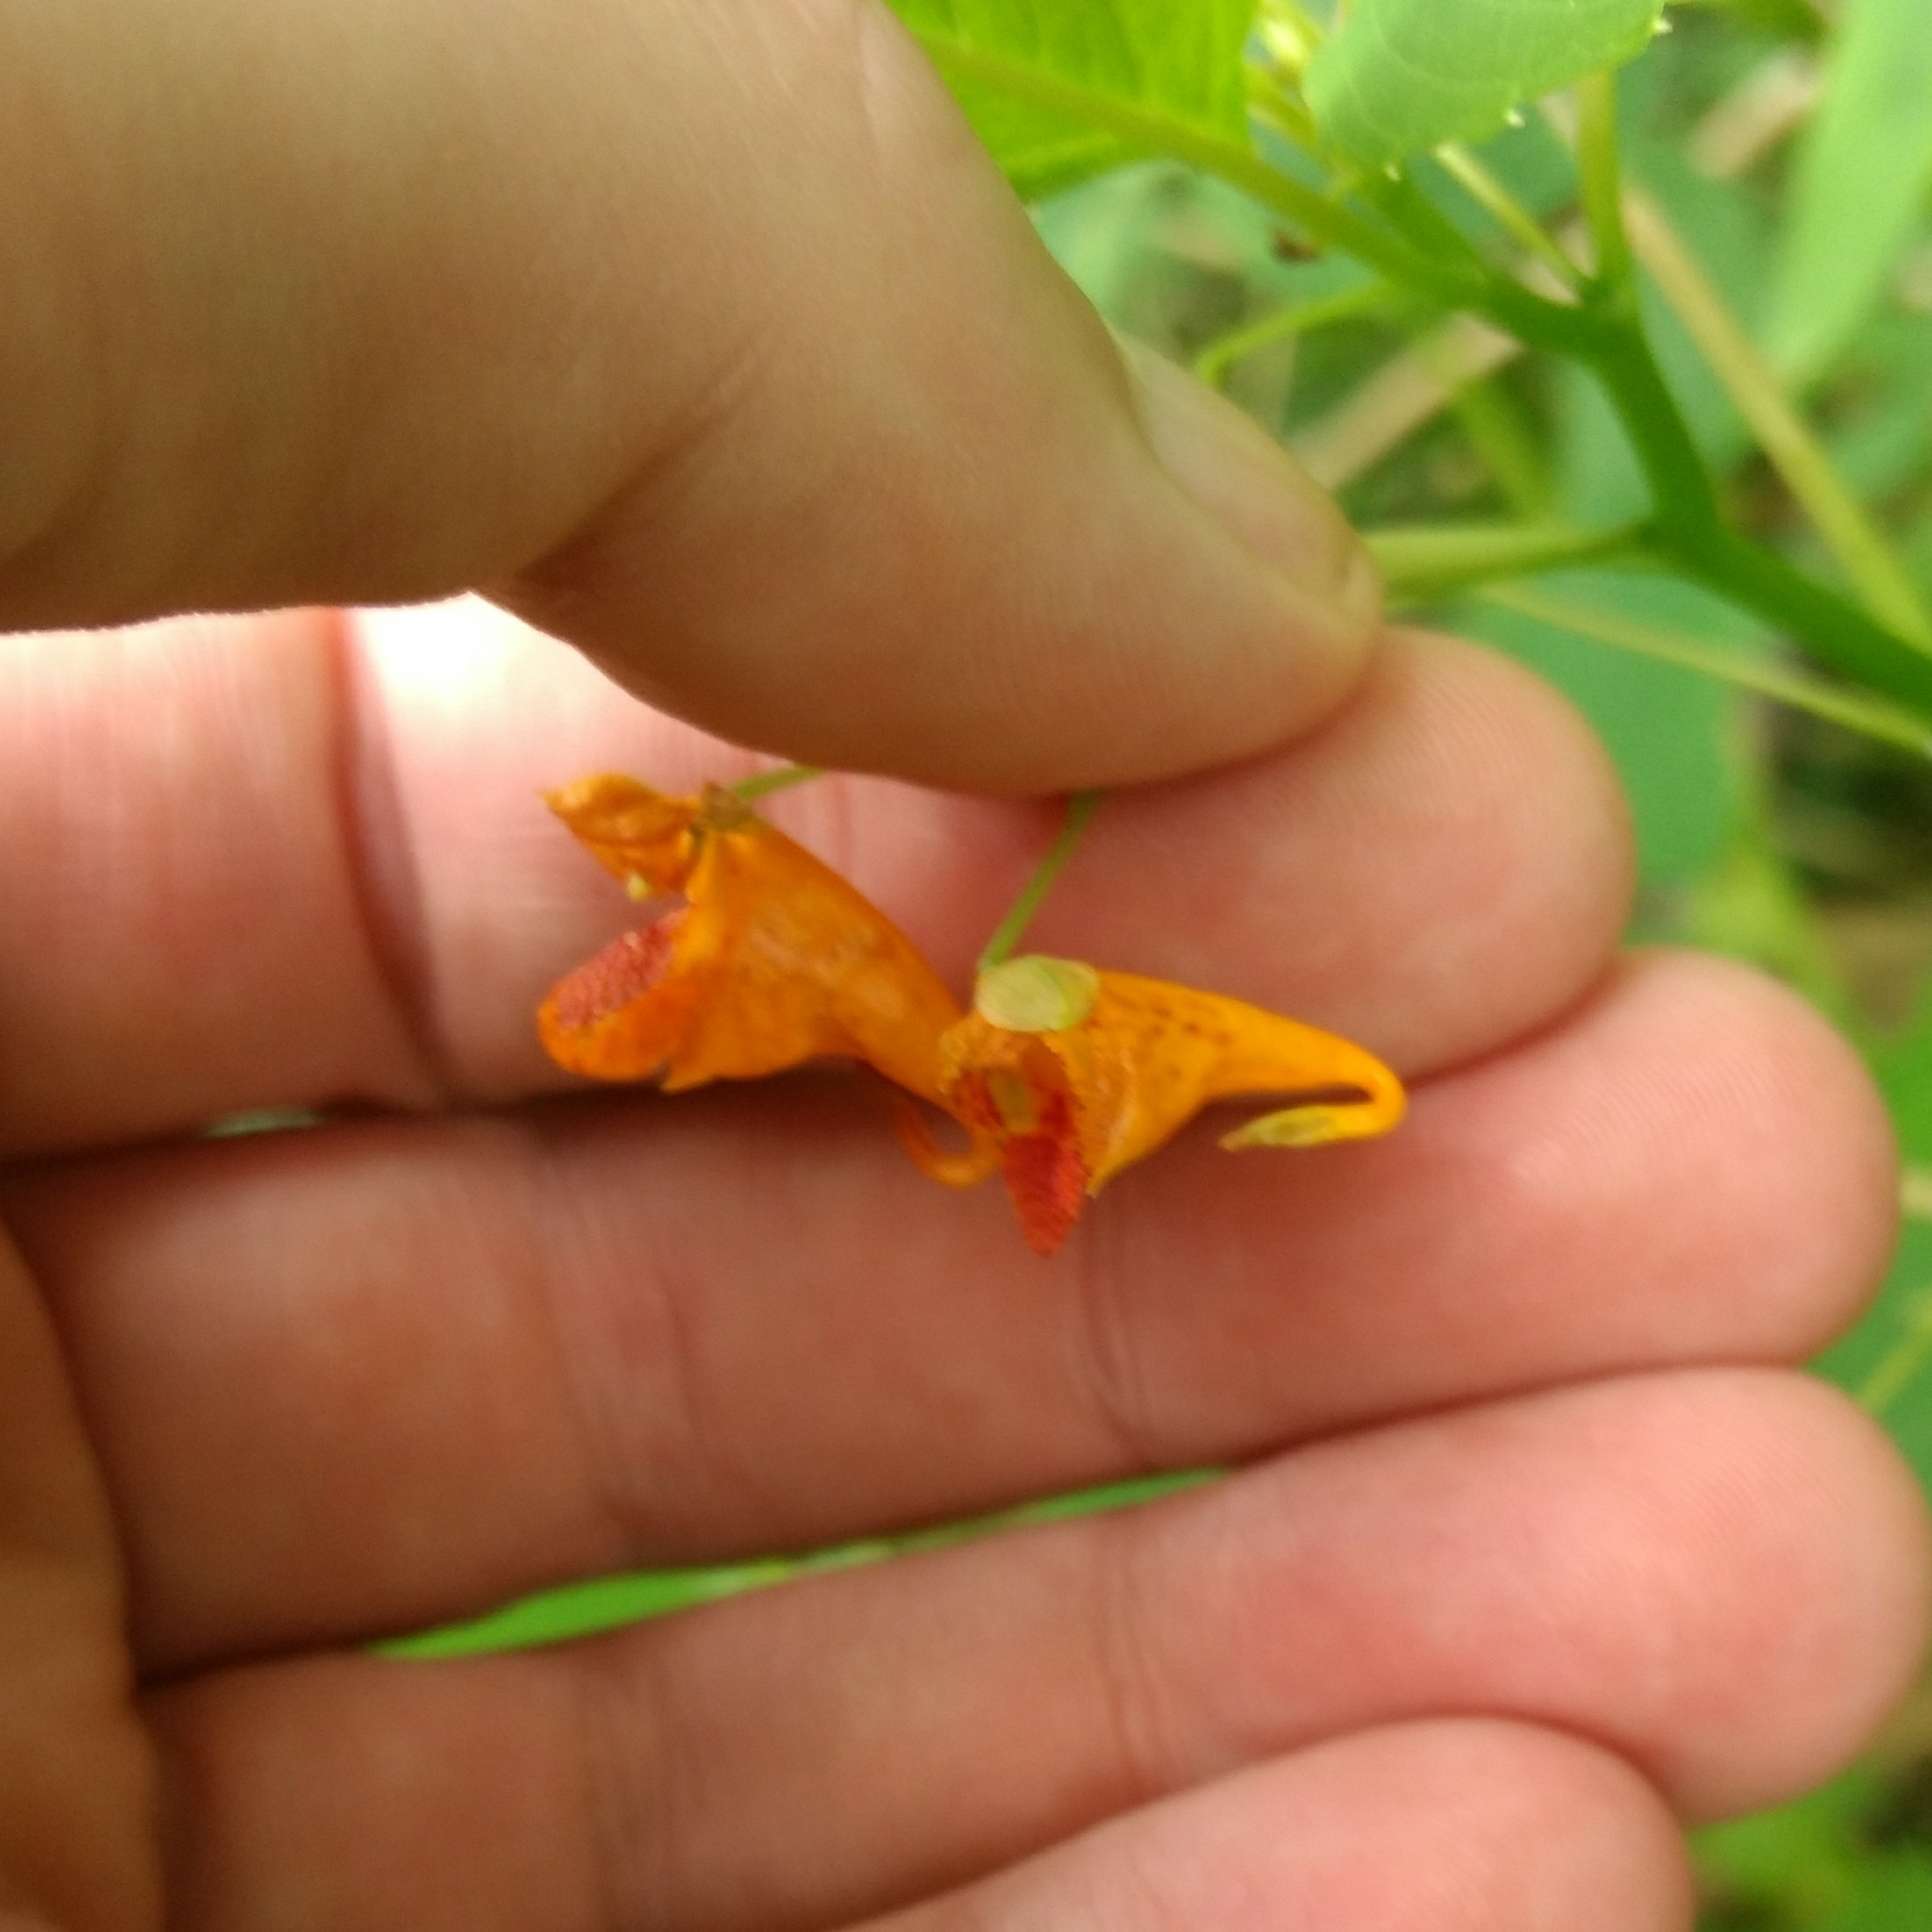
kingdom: Plantae
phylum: Tracheophyta
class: Magnoliopsida
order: Ericales
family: Balsaminaceae
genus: Impatiens
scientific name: Impatiens capensis
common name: Orange balsam
